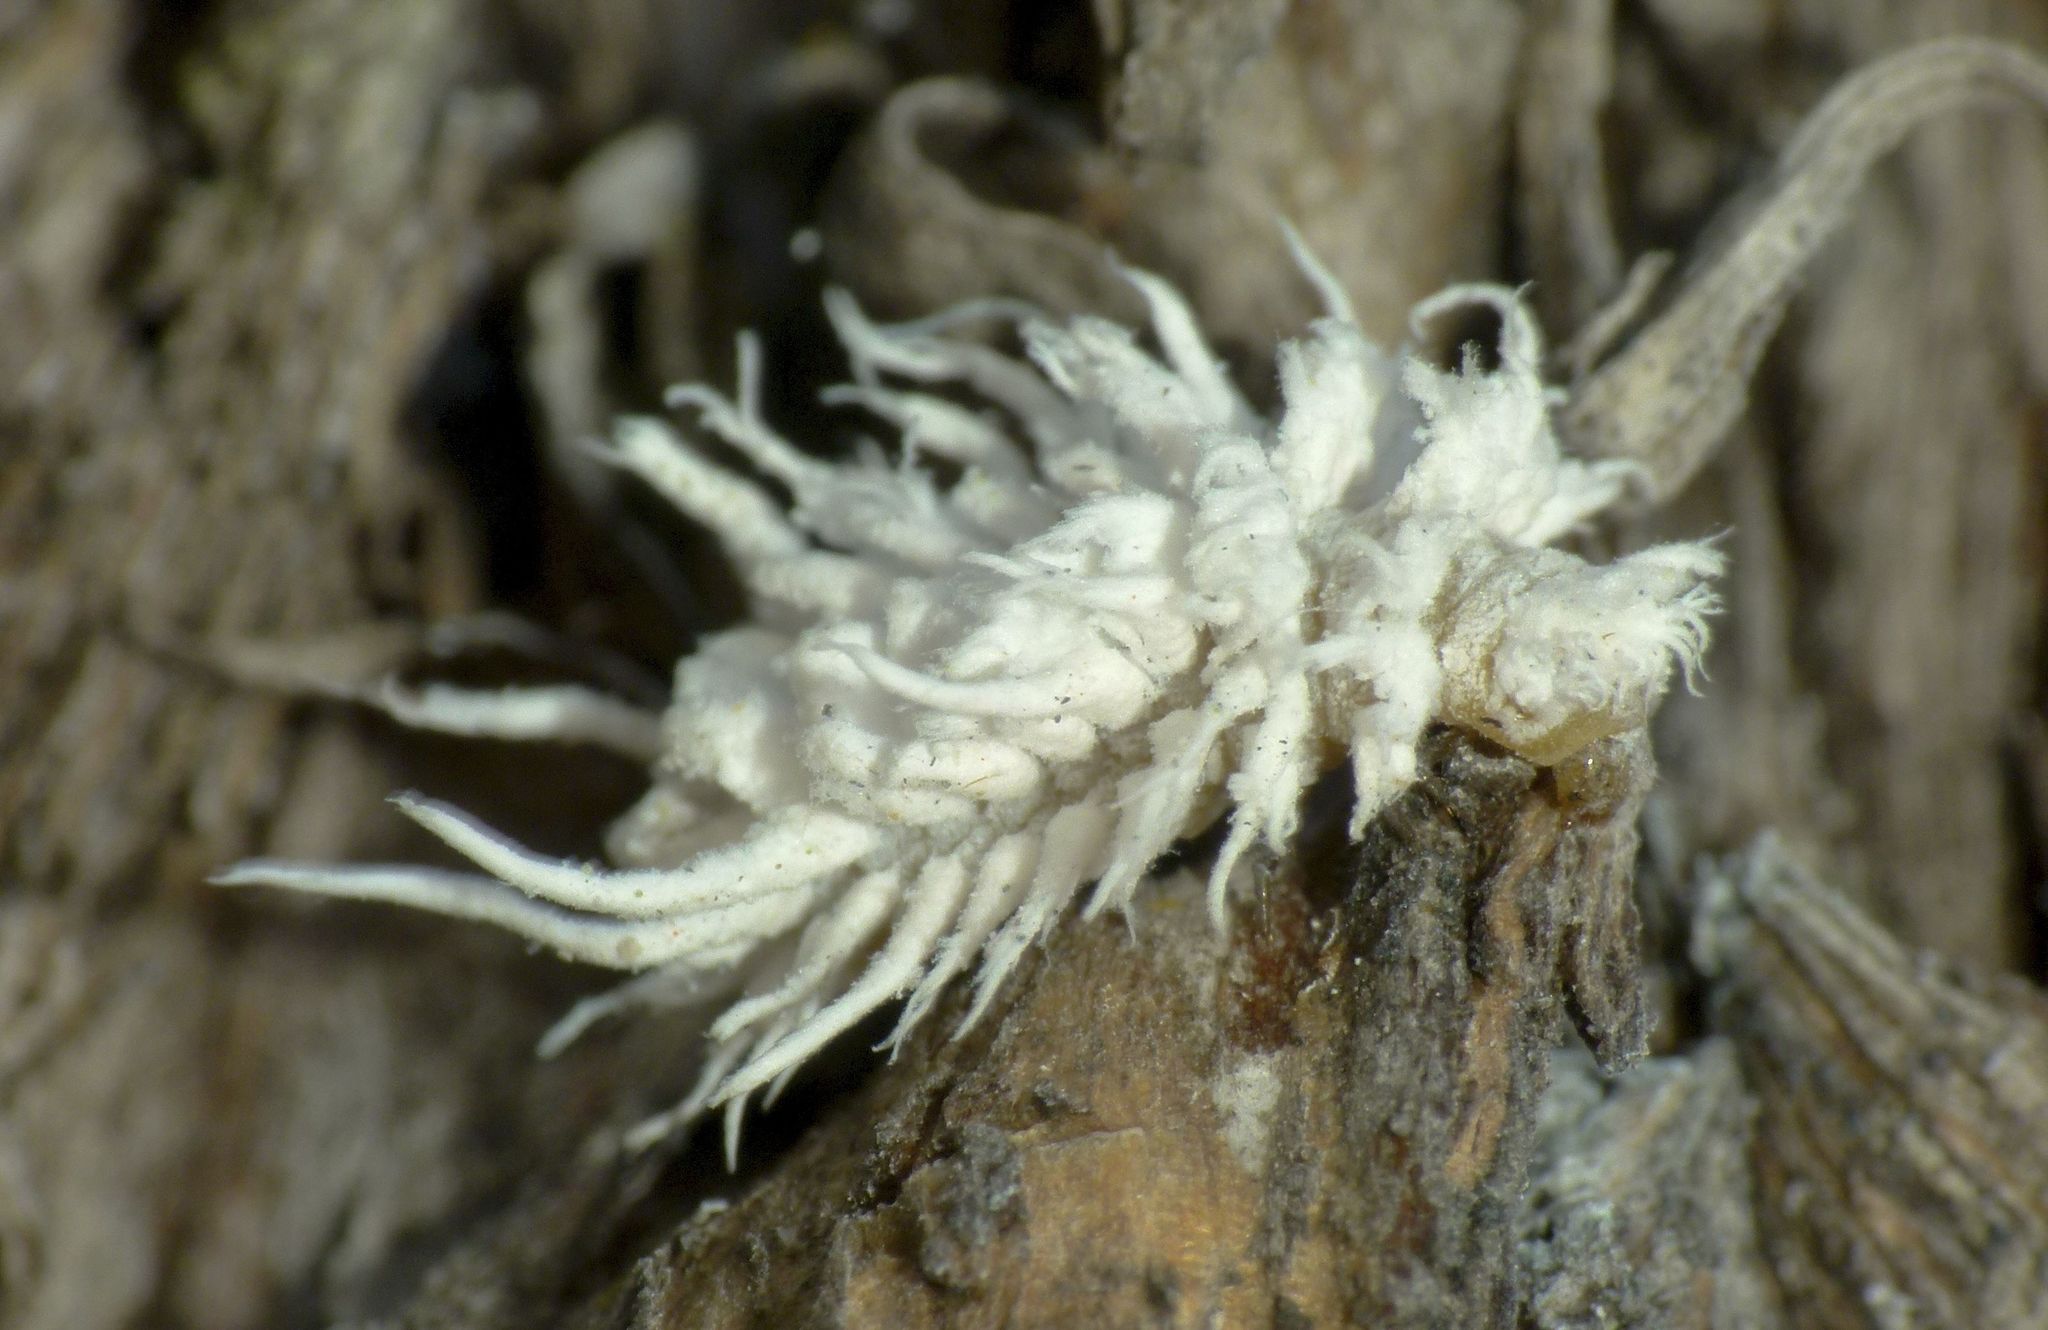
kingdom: Animalia
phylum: Arthropoda
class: Insecta
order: Coleoptera
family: Coccinellidae
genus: Cryptolaemus
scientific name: Cryptolaemus montrouzieri
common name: Mealybug destroyer
